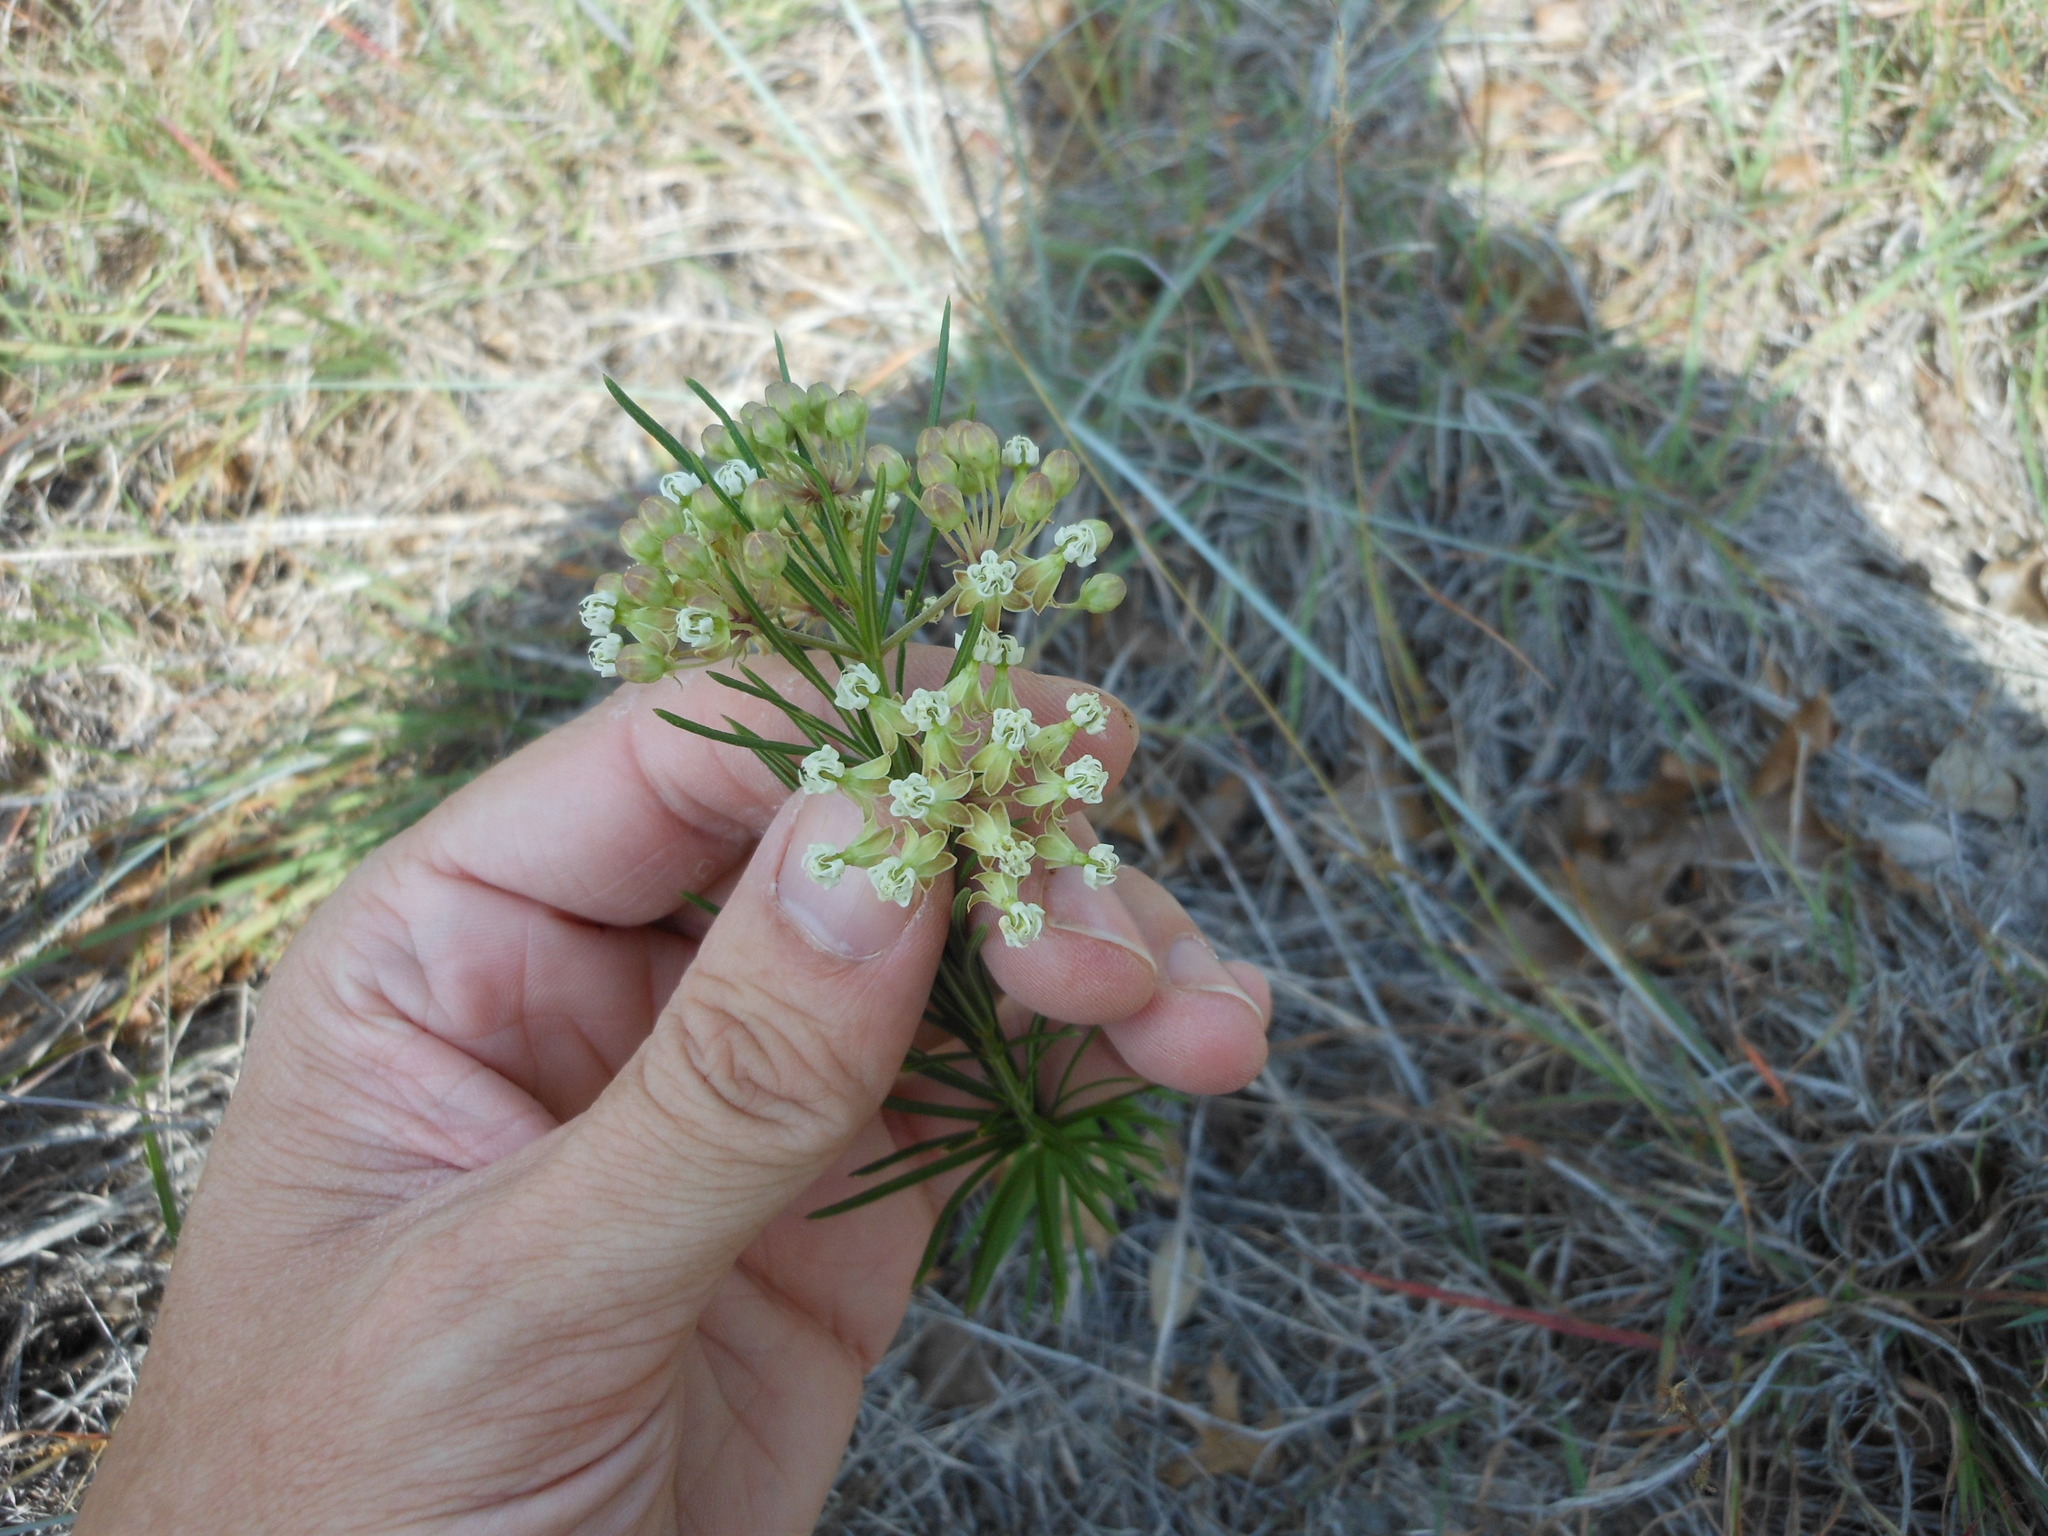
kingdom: Plantae
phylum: Tracheophyta
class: Magnoliopsida
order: Gentianales
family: Apocynaceae
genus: Asclepias
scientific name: Asclepias verticillata
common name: Eastern whorled milkweed
